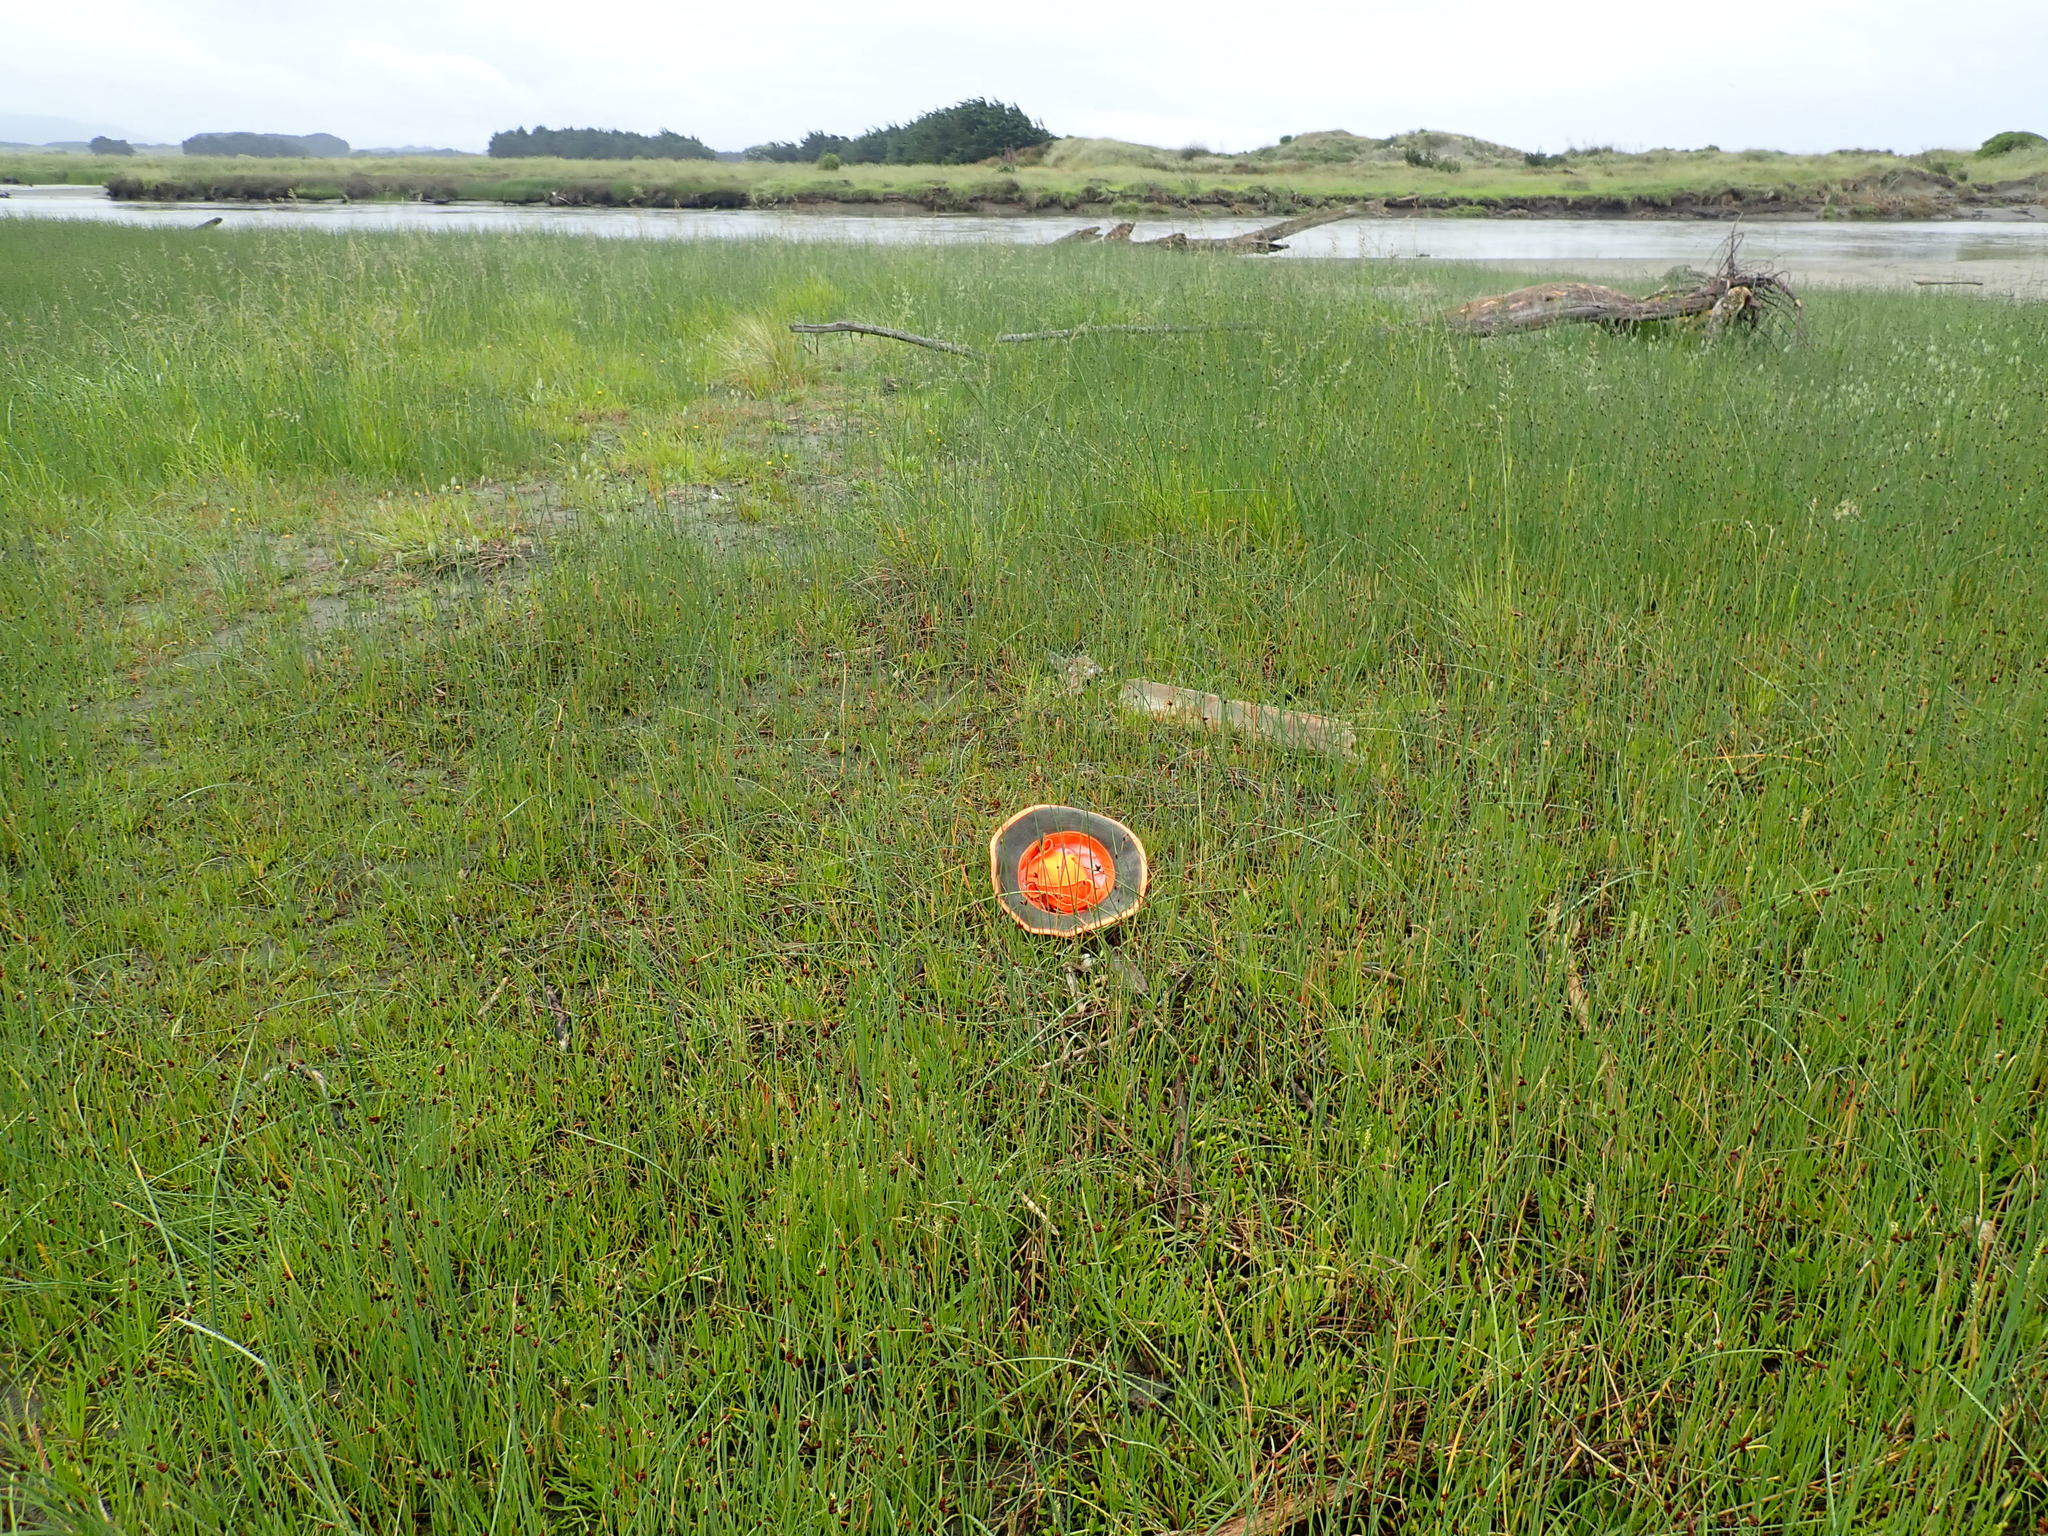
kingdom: Plantae
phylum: Tracheophyta
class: Magnoliopsida
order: Asterales
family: Goodeniaceae
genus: Goodenia
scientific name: Goodenia radicans
